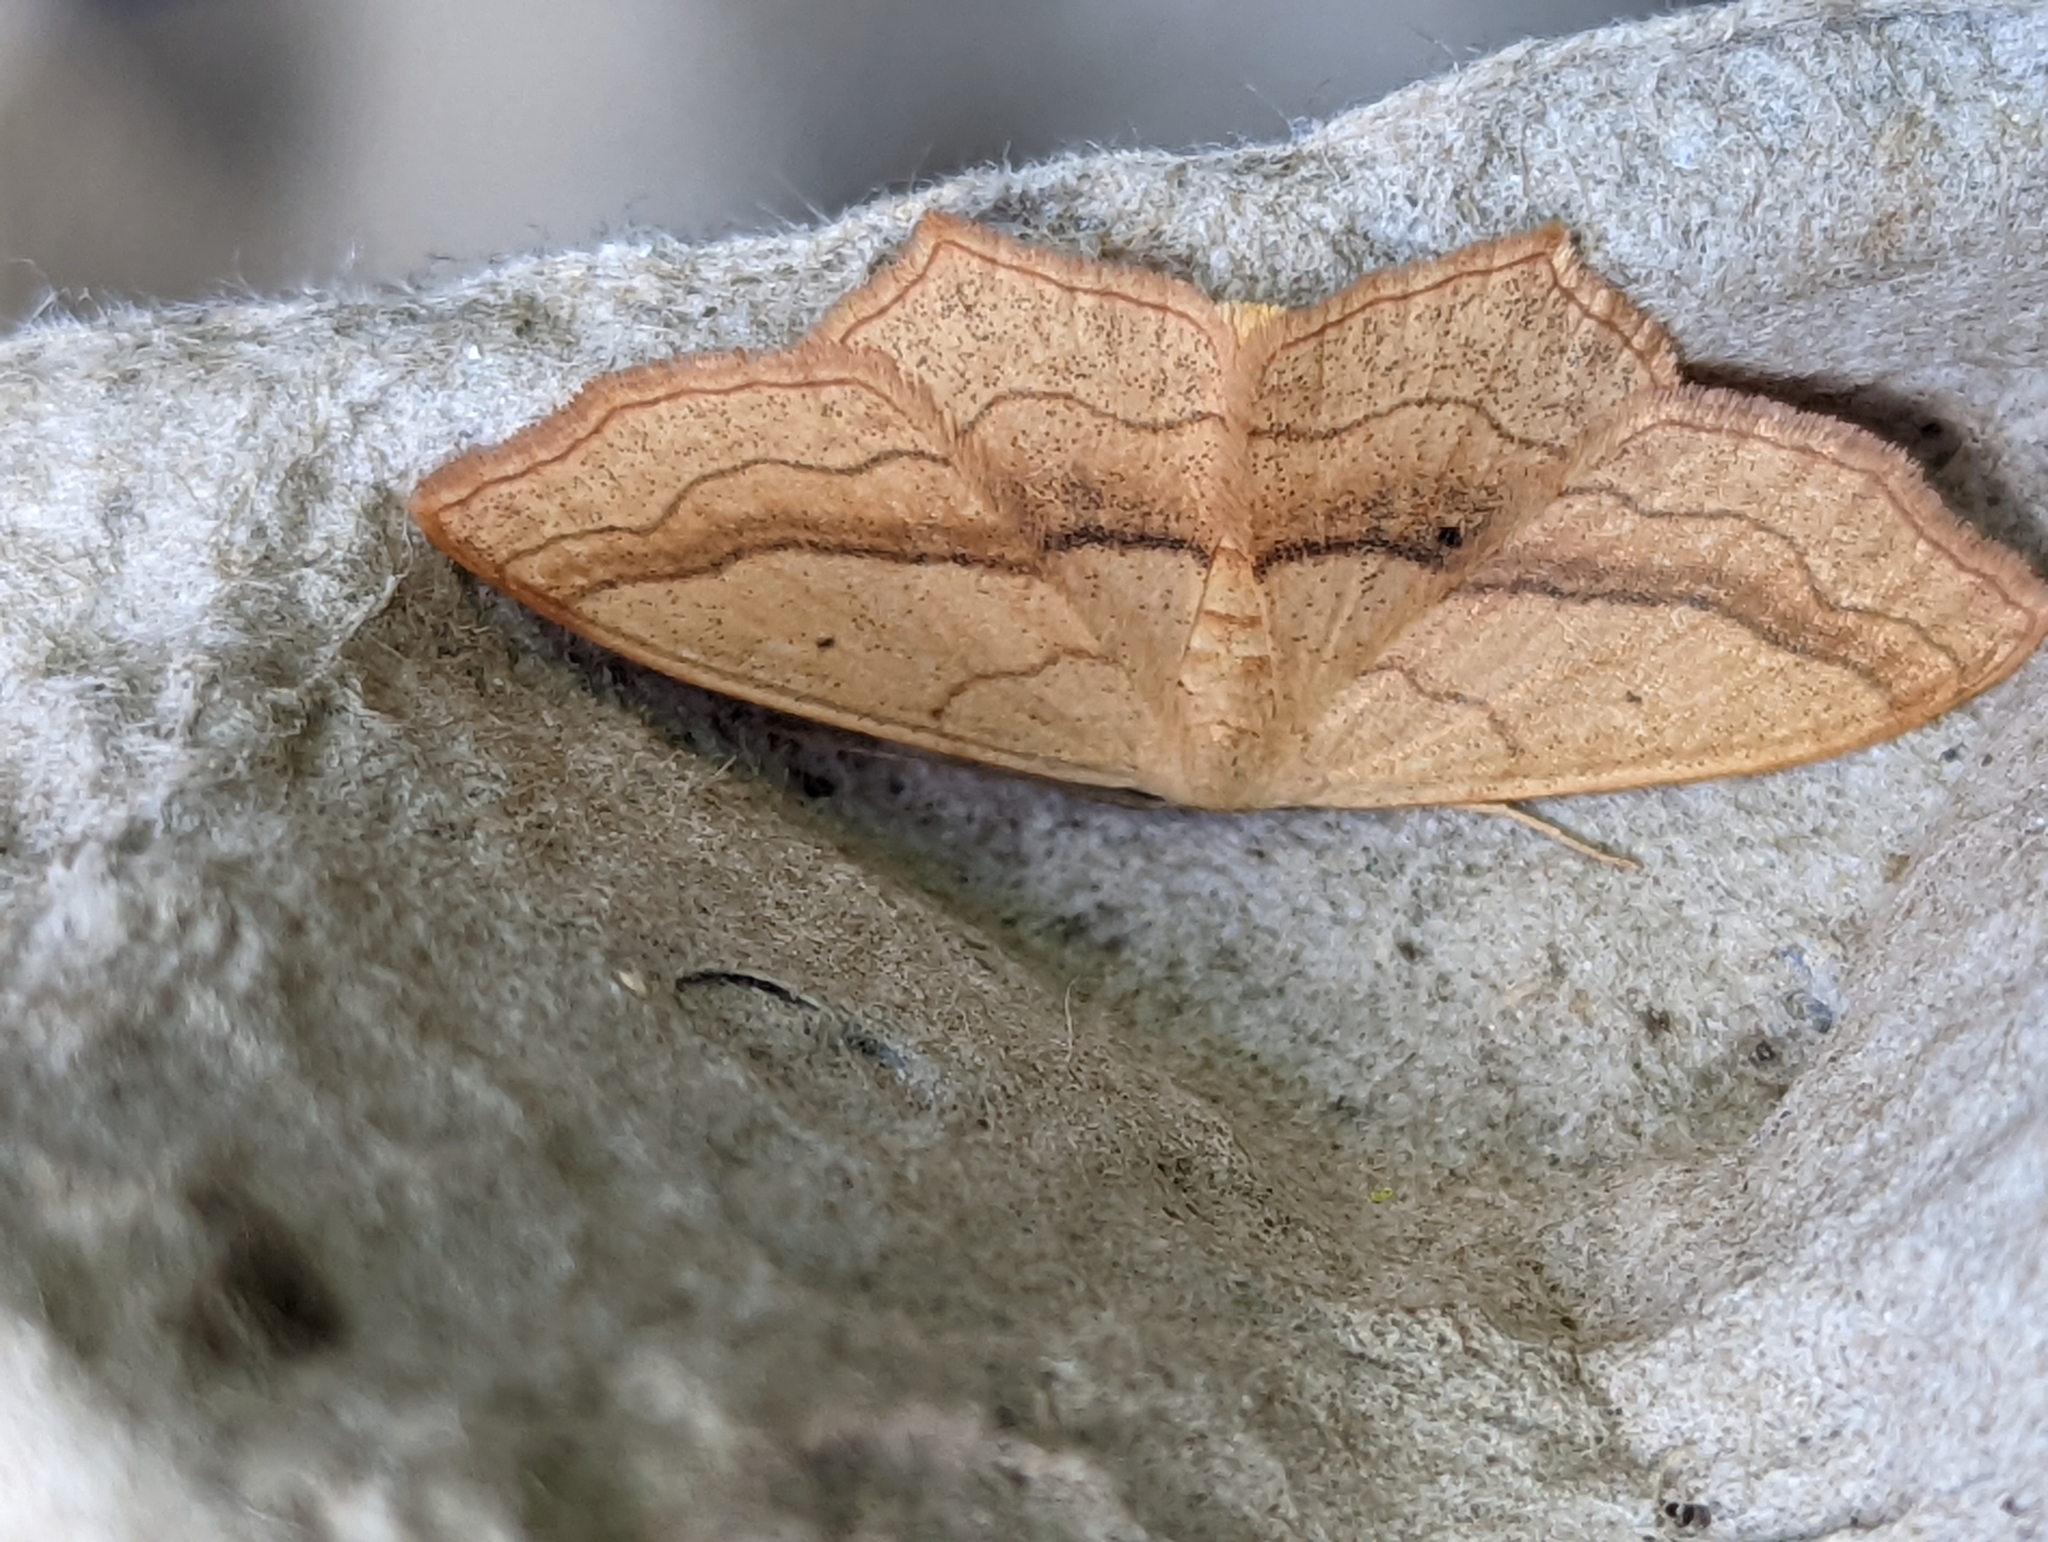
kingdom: Animalia
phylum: Arthropoda
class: Insecta
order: Lepidoptera
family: Geometridae
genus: Scopula
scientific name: Scopula imitaria
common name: Small blood-vein
